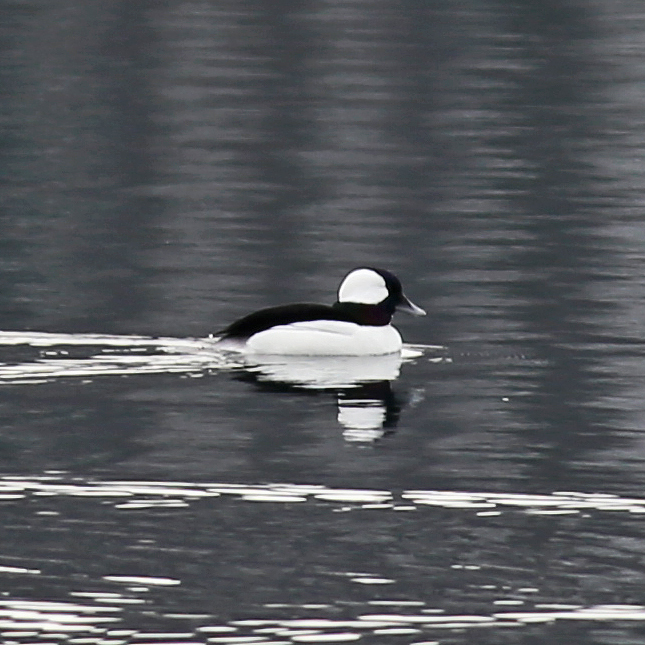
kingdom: Animalia
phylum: Chordata
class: Aves
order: Anseriformes
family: Anatidae
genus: Bucephala
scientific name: Bucephala albeola
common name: Bufflehead
